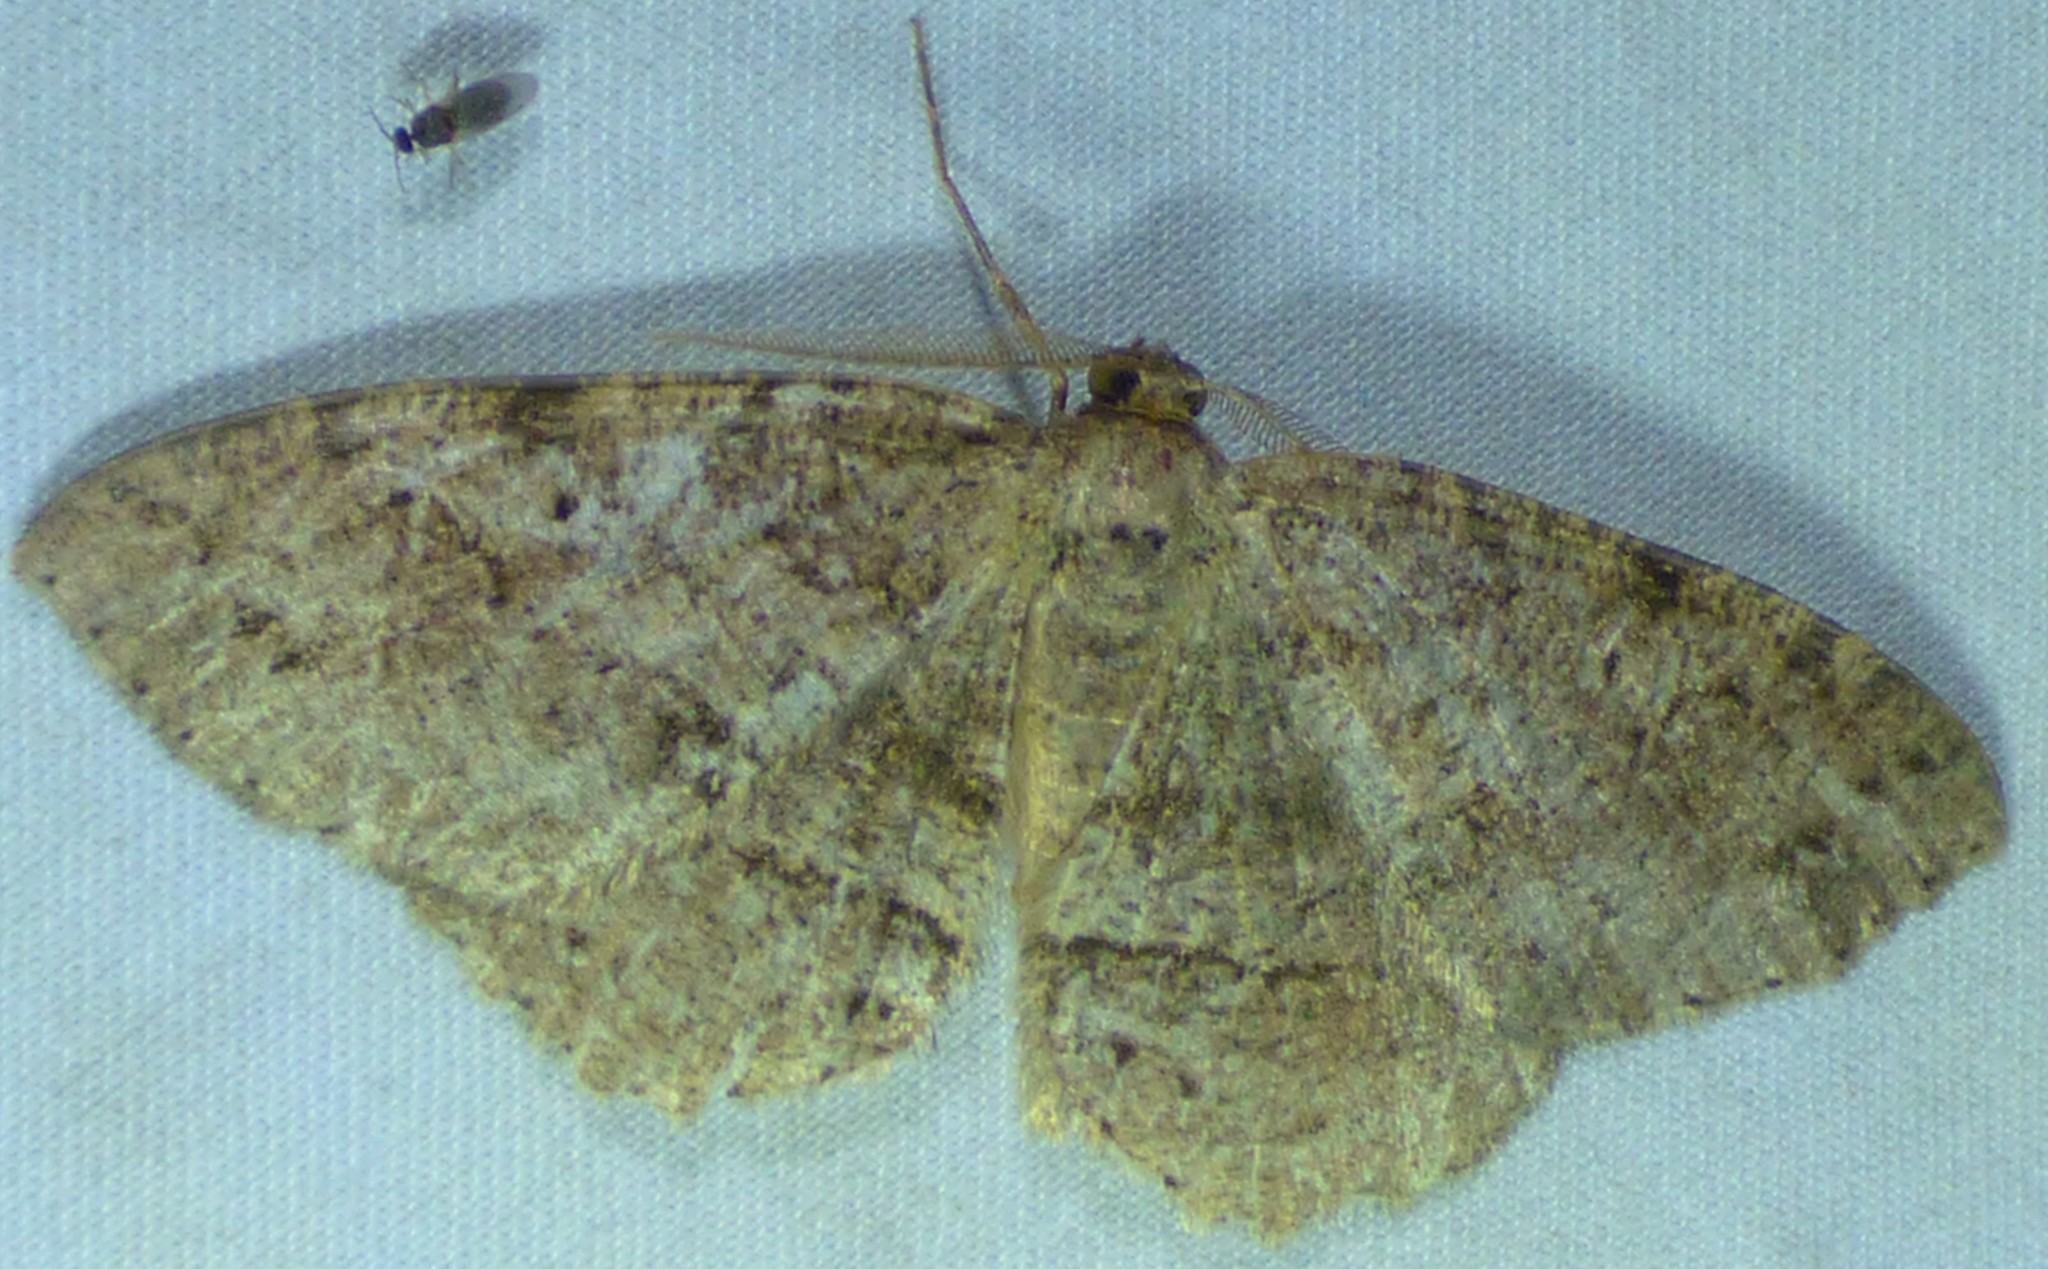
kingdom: Animalia
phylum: Arthropoda
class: Insecta
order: Lepidoptera
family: Geometridae
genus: Melanolophia
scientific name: Melanolophia canadaria
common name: Canadian melanolophia
